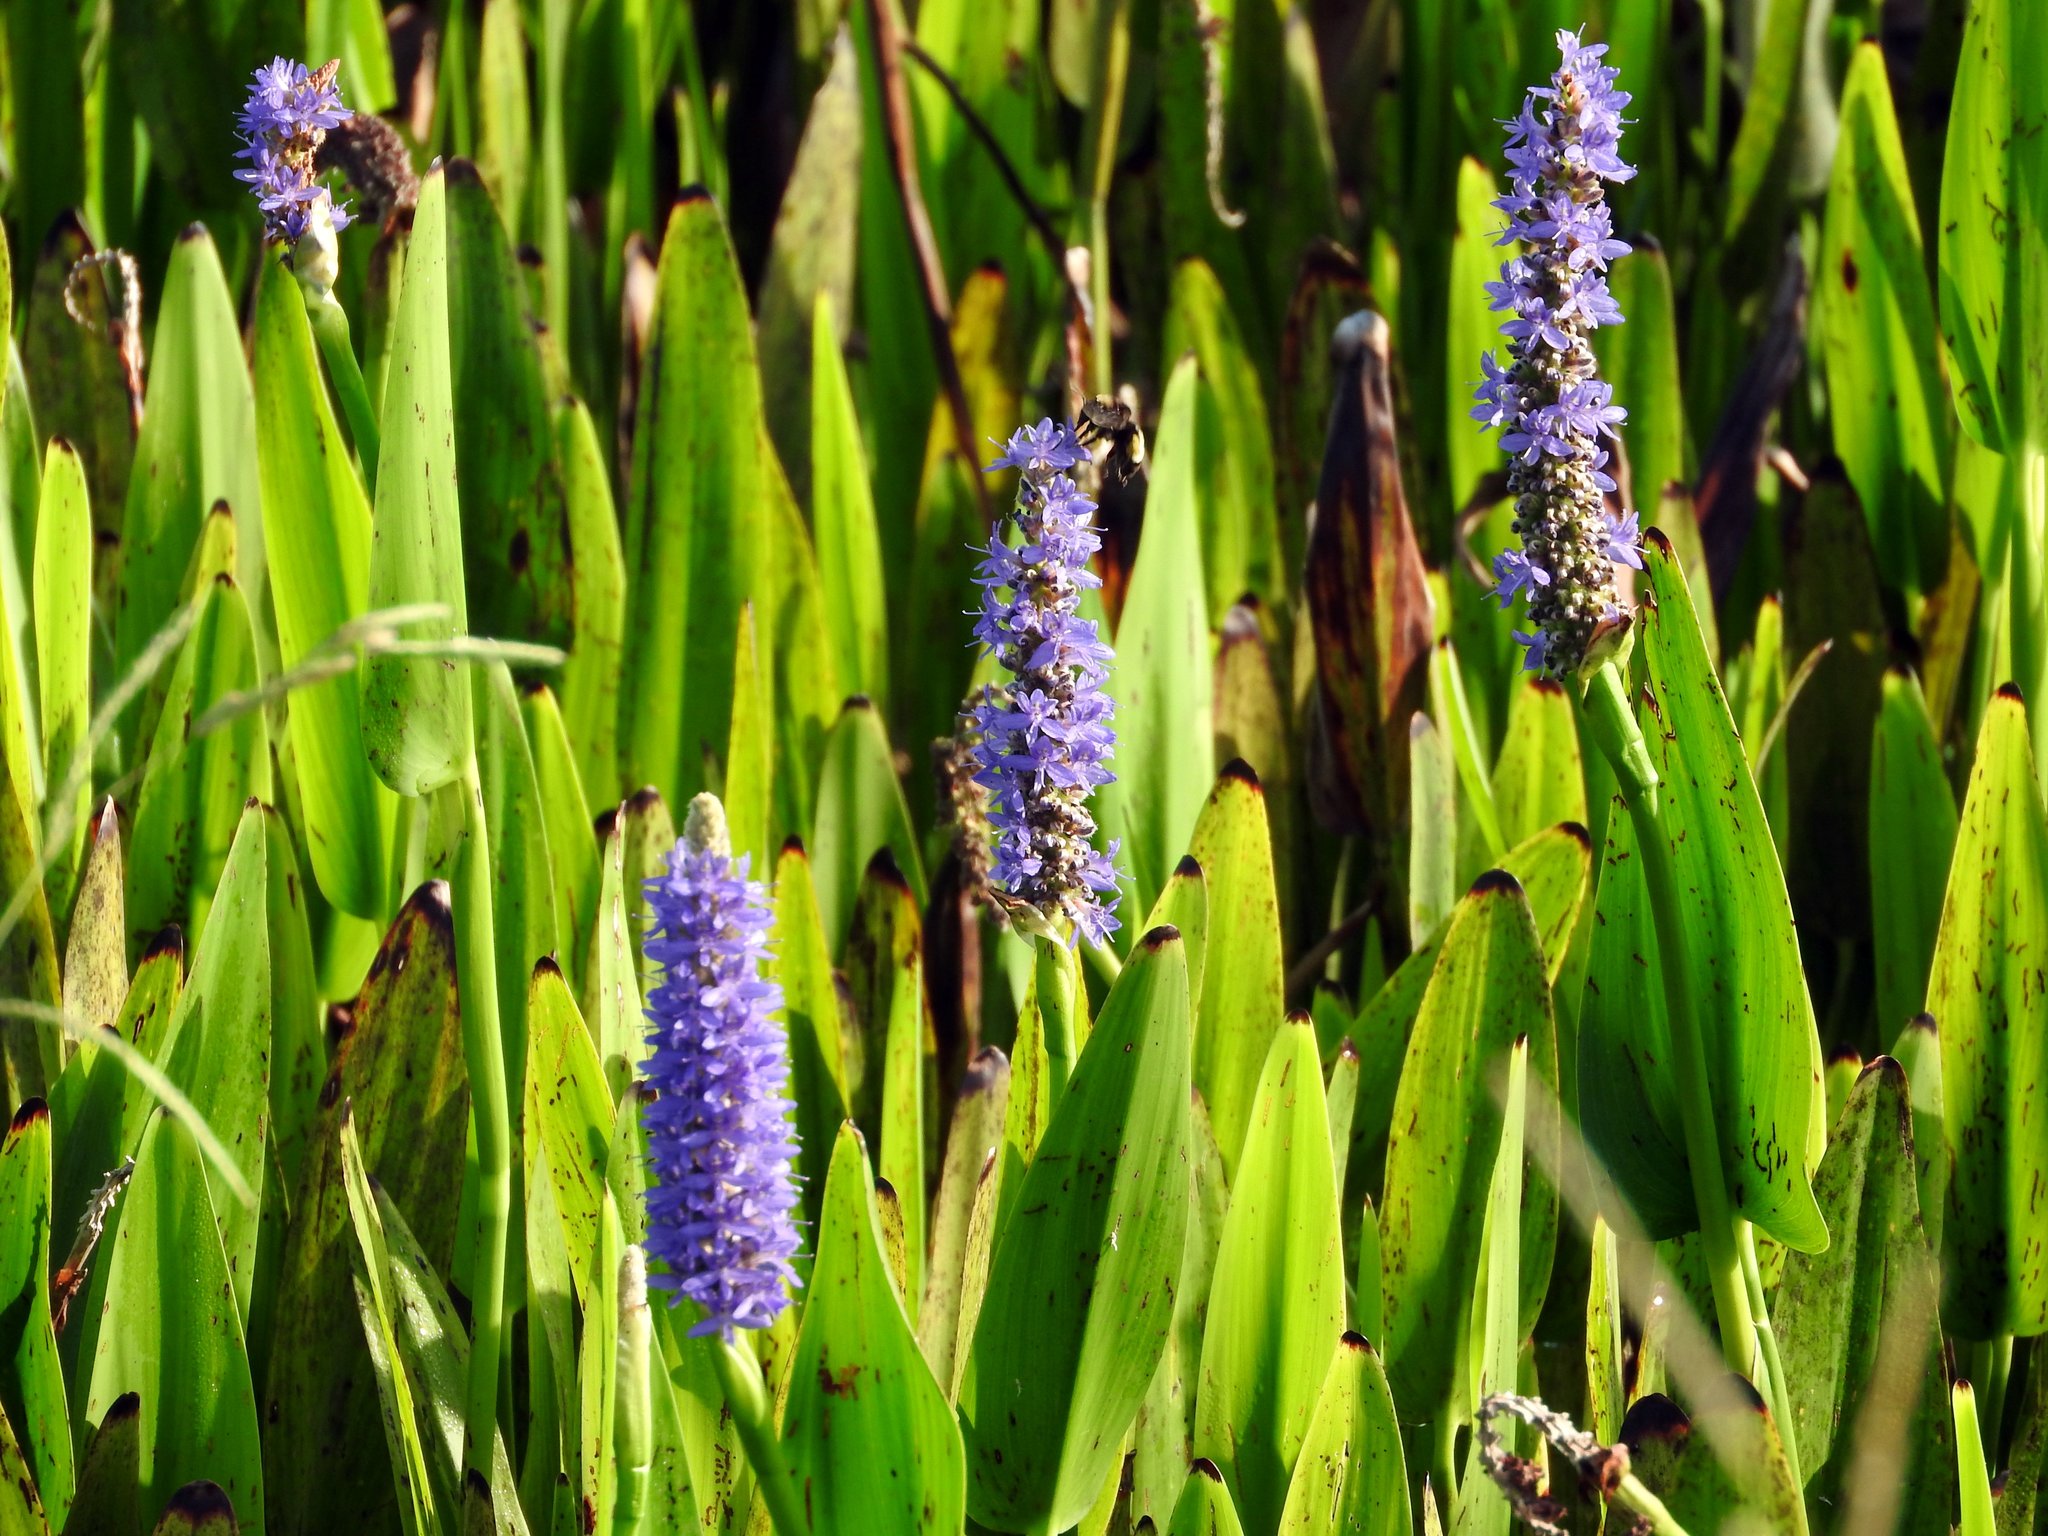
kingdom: Plantae
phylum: Tracheophyta
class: Liliopsida
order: Commelinales
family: Pontederiaceae
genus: Pontederia
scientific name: Pontederia cordata
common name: Pickerelweed
